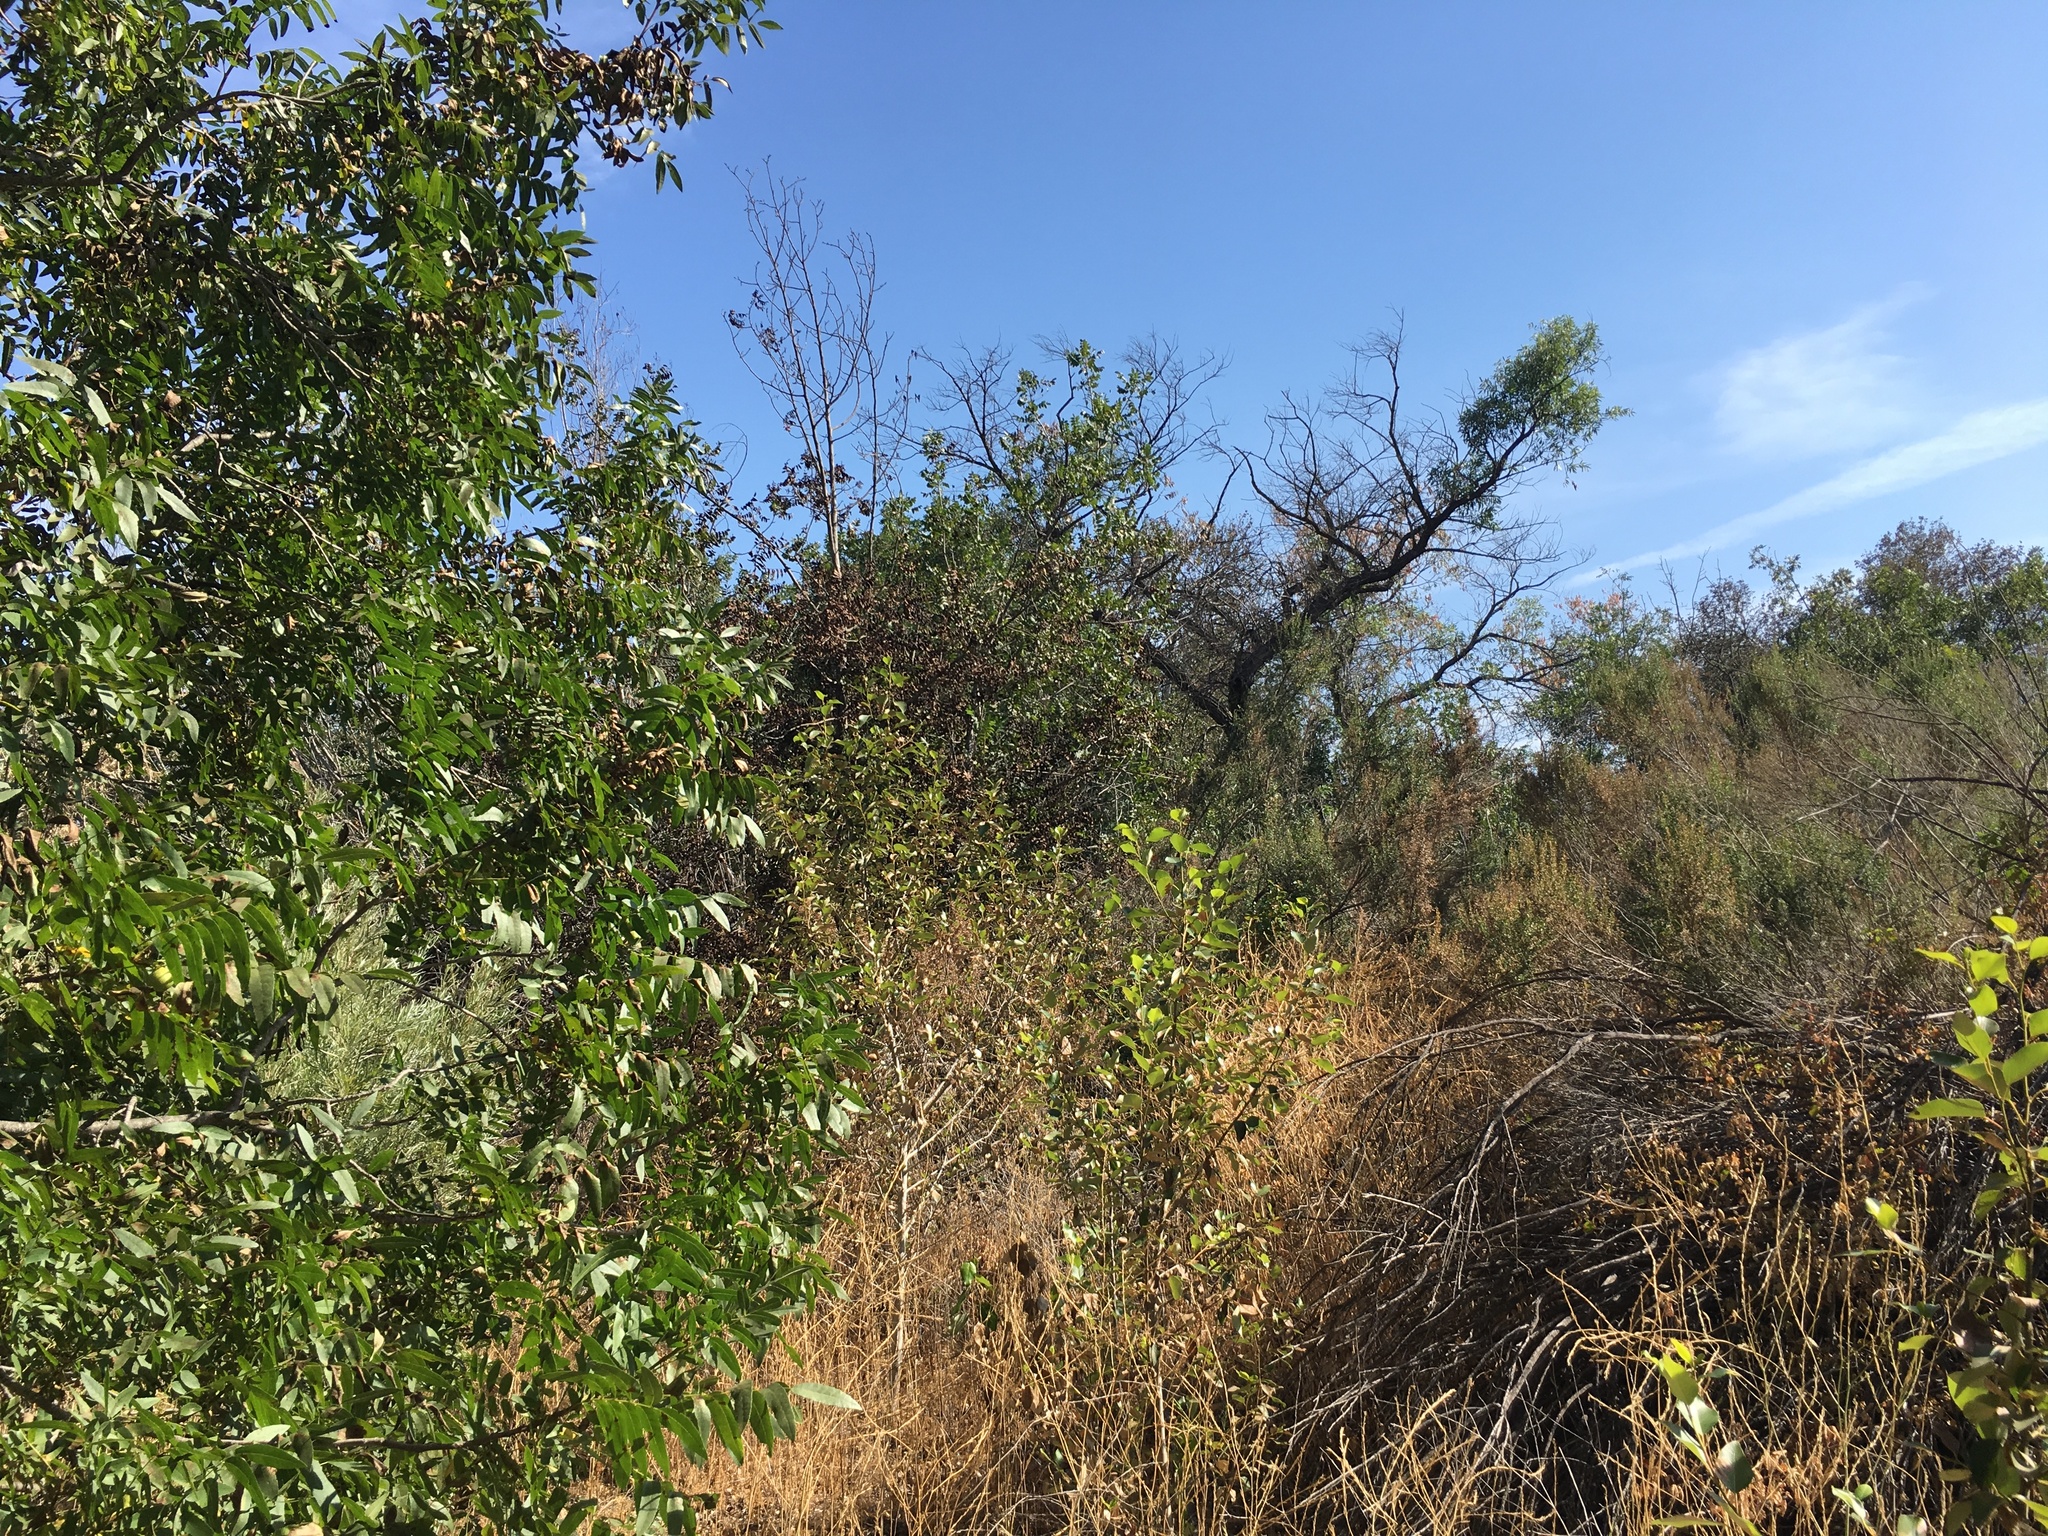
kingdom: Plantae
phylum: Tracheophyta
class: Magnoliopsida
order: Fagales
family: Juglandaceae
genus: Juglans
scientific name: Juglans californica
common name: Southern california black walnut
